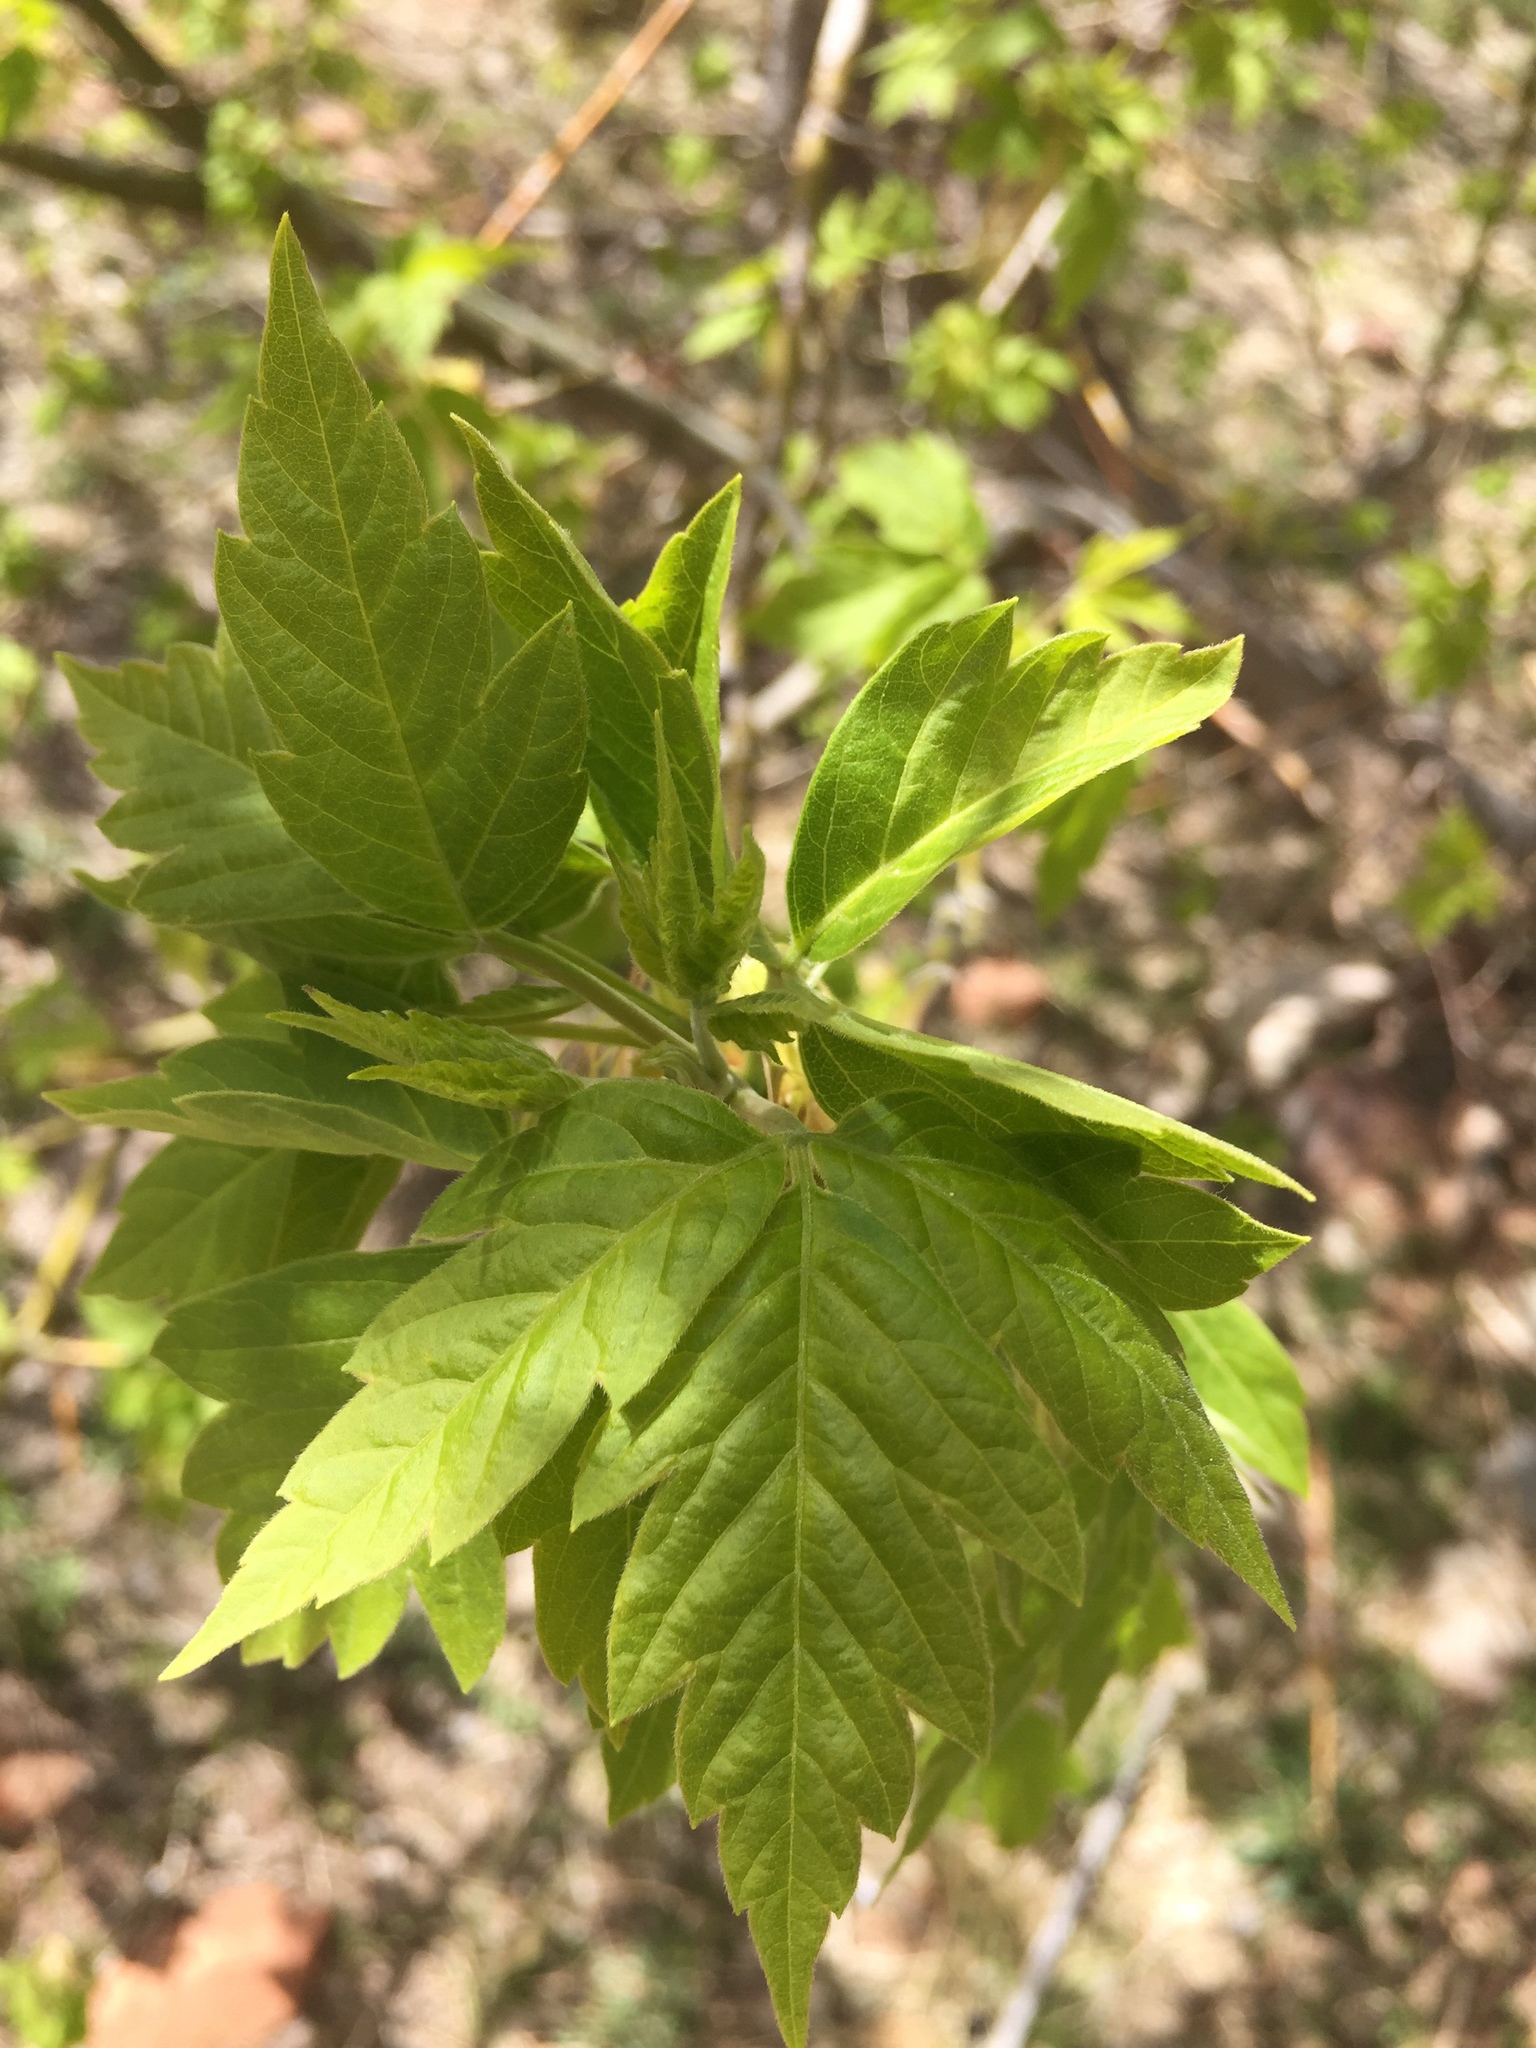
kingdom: Plantae
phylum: Tracheophyta
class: Magnoliopsida
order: Sapindales
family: Sapindaceae
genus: Acer
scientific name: Acer negundo
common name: Ashleaf maple
